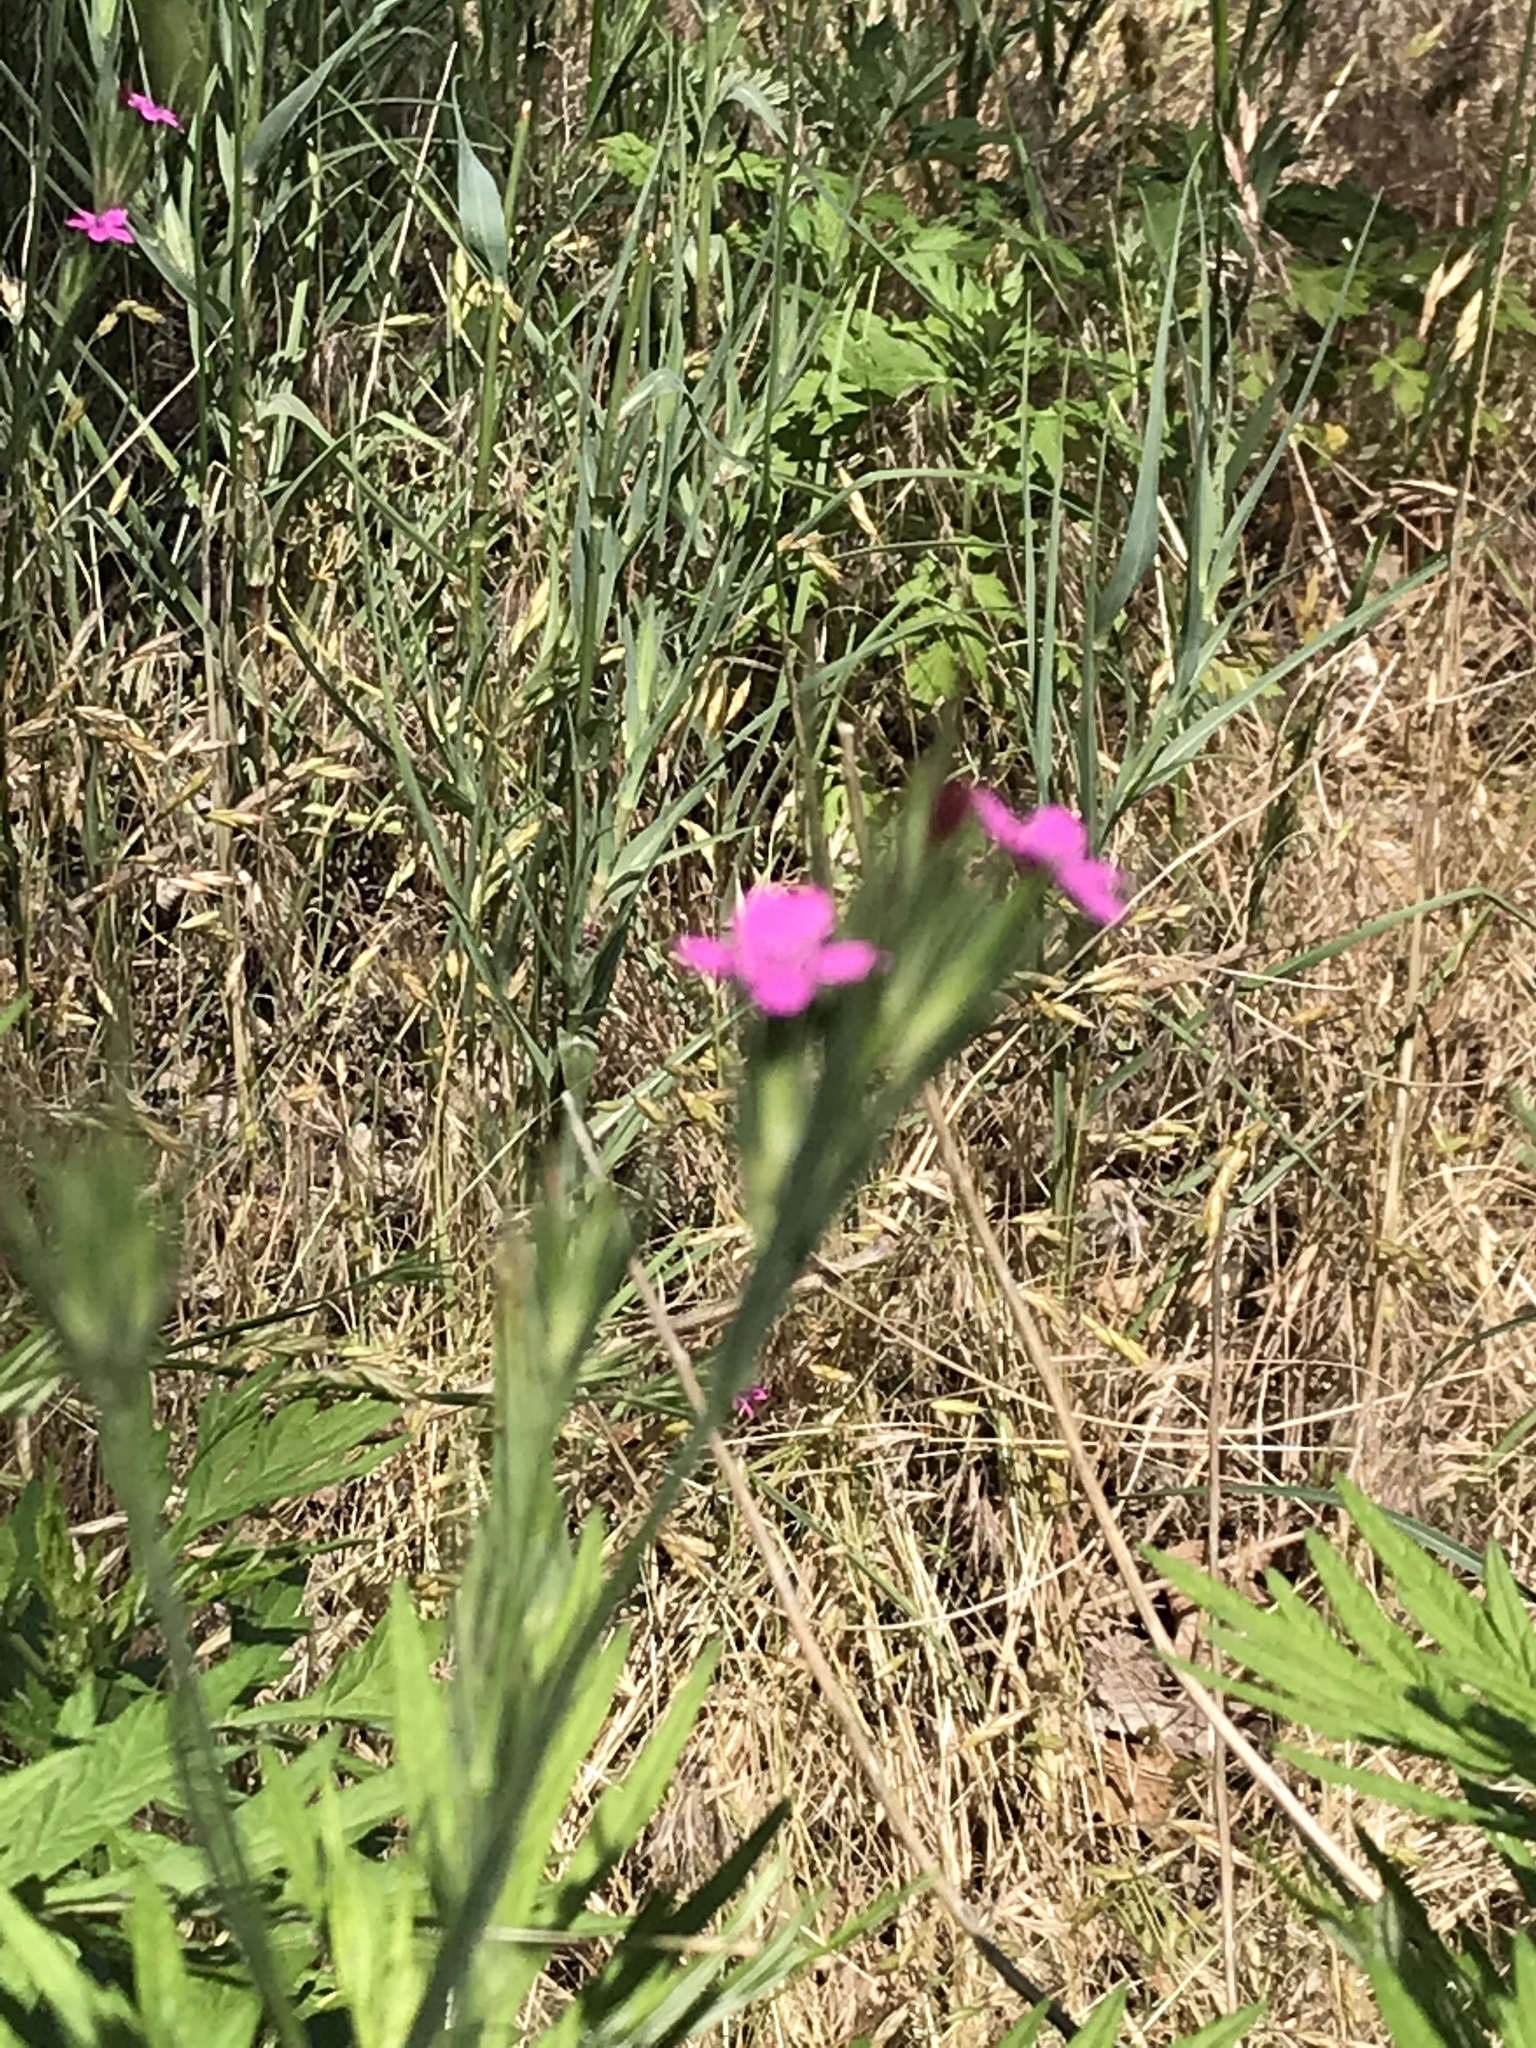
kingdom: Plantae
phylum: Tracheophyta
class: Magnoliopsida
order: Caryophyllales
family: Caryophyllaceae
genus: Dianthus
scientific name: Dianthus armeria
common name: Deptford pink
